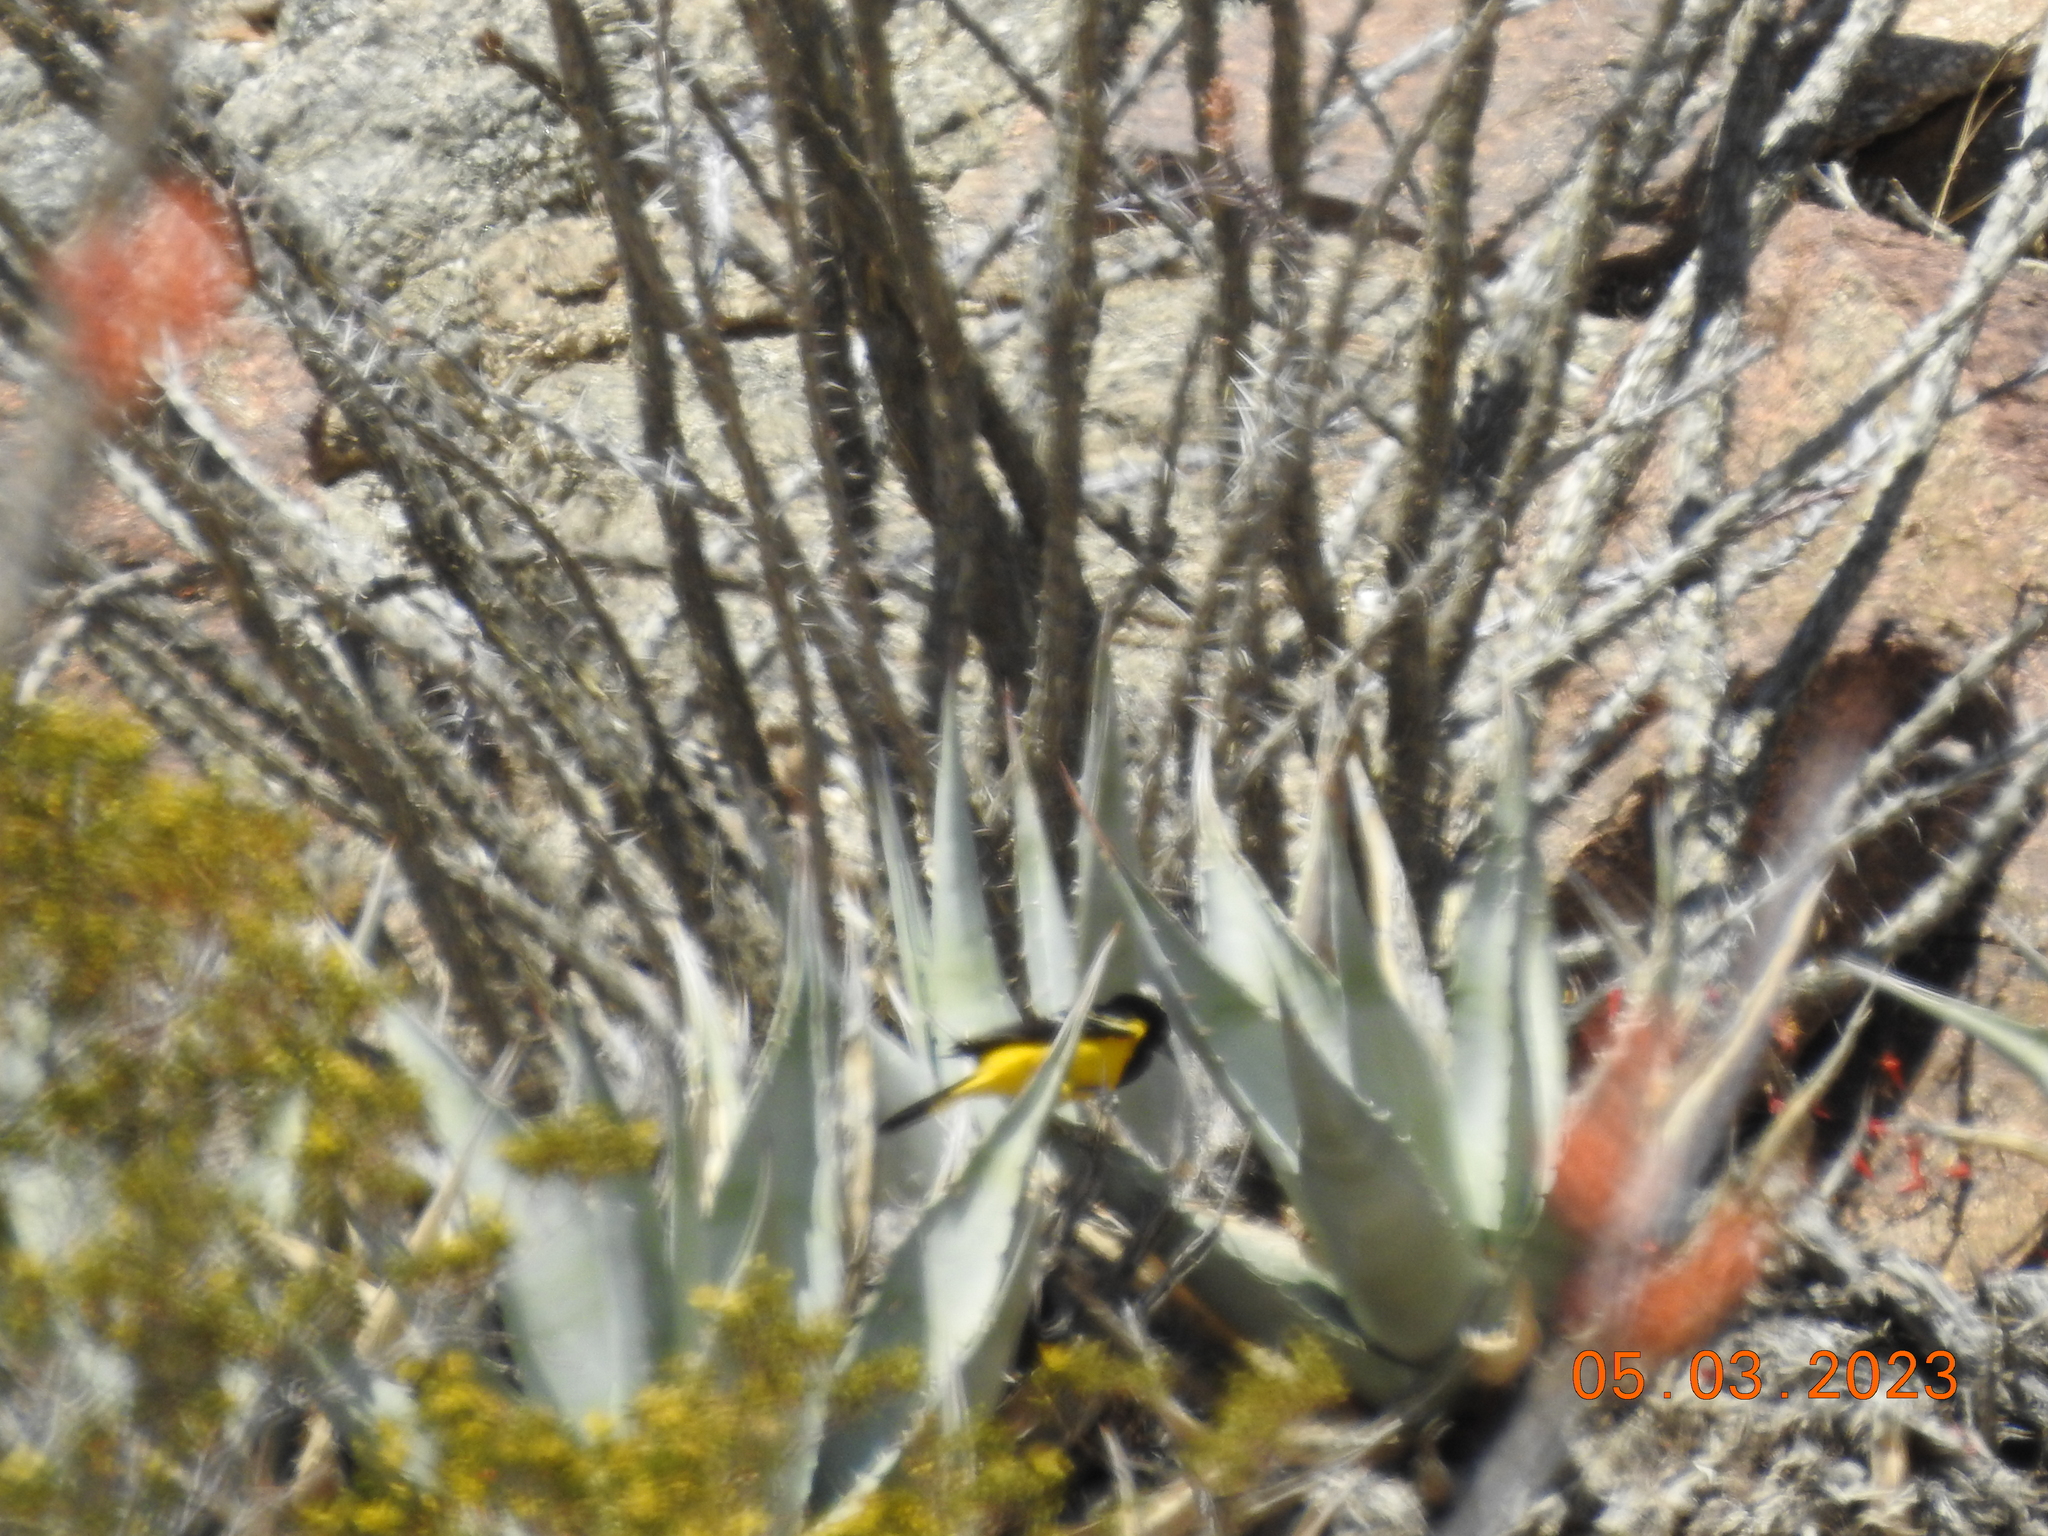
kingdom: Animalia
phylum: Chordata
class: Aves
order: Passeriformes
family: Icteridae
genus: Icterus
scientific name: Icterus parisorum
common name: Scott's oriole
